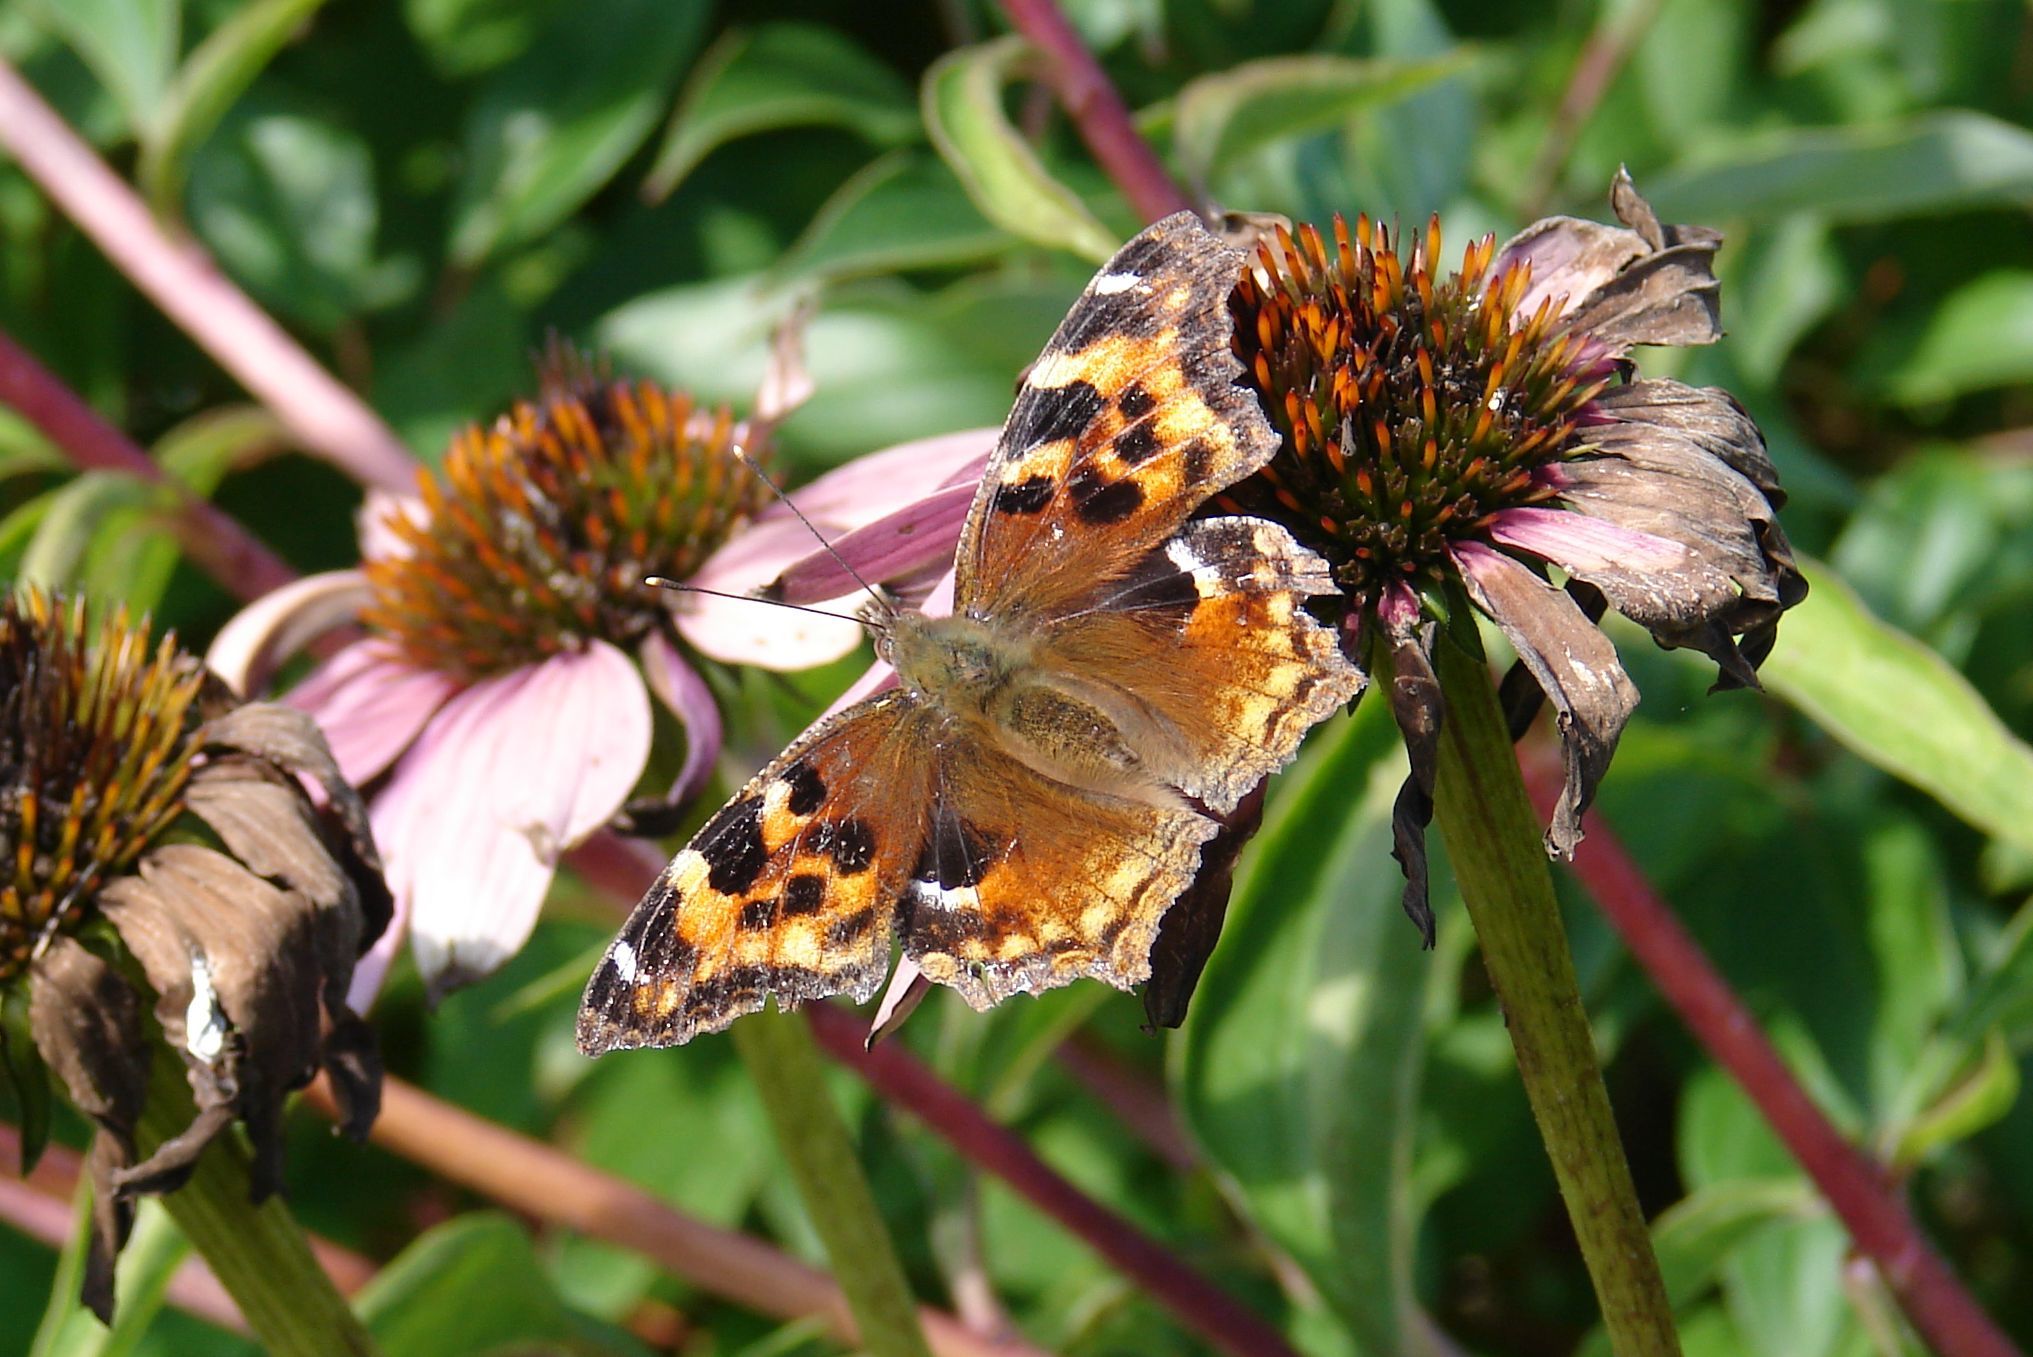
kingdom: Animalia
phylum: Arthropoda
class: Insecta
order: Lepidoptera
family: Nymphalidae
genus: Polygonia
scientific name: Polygonia vaualbum
